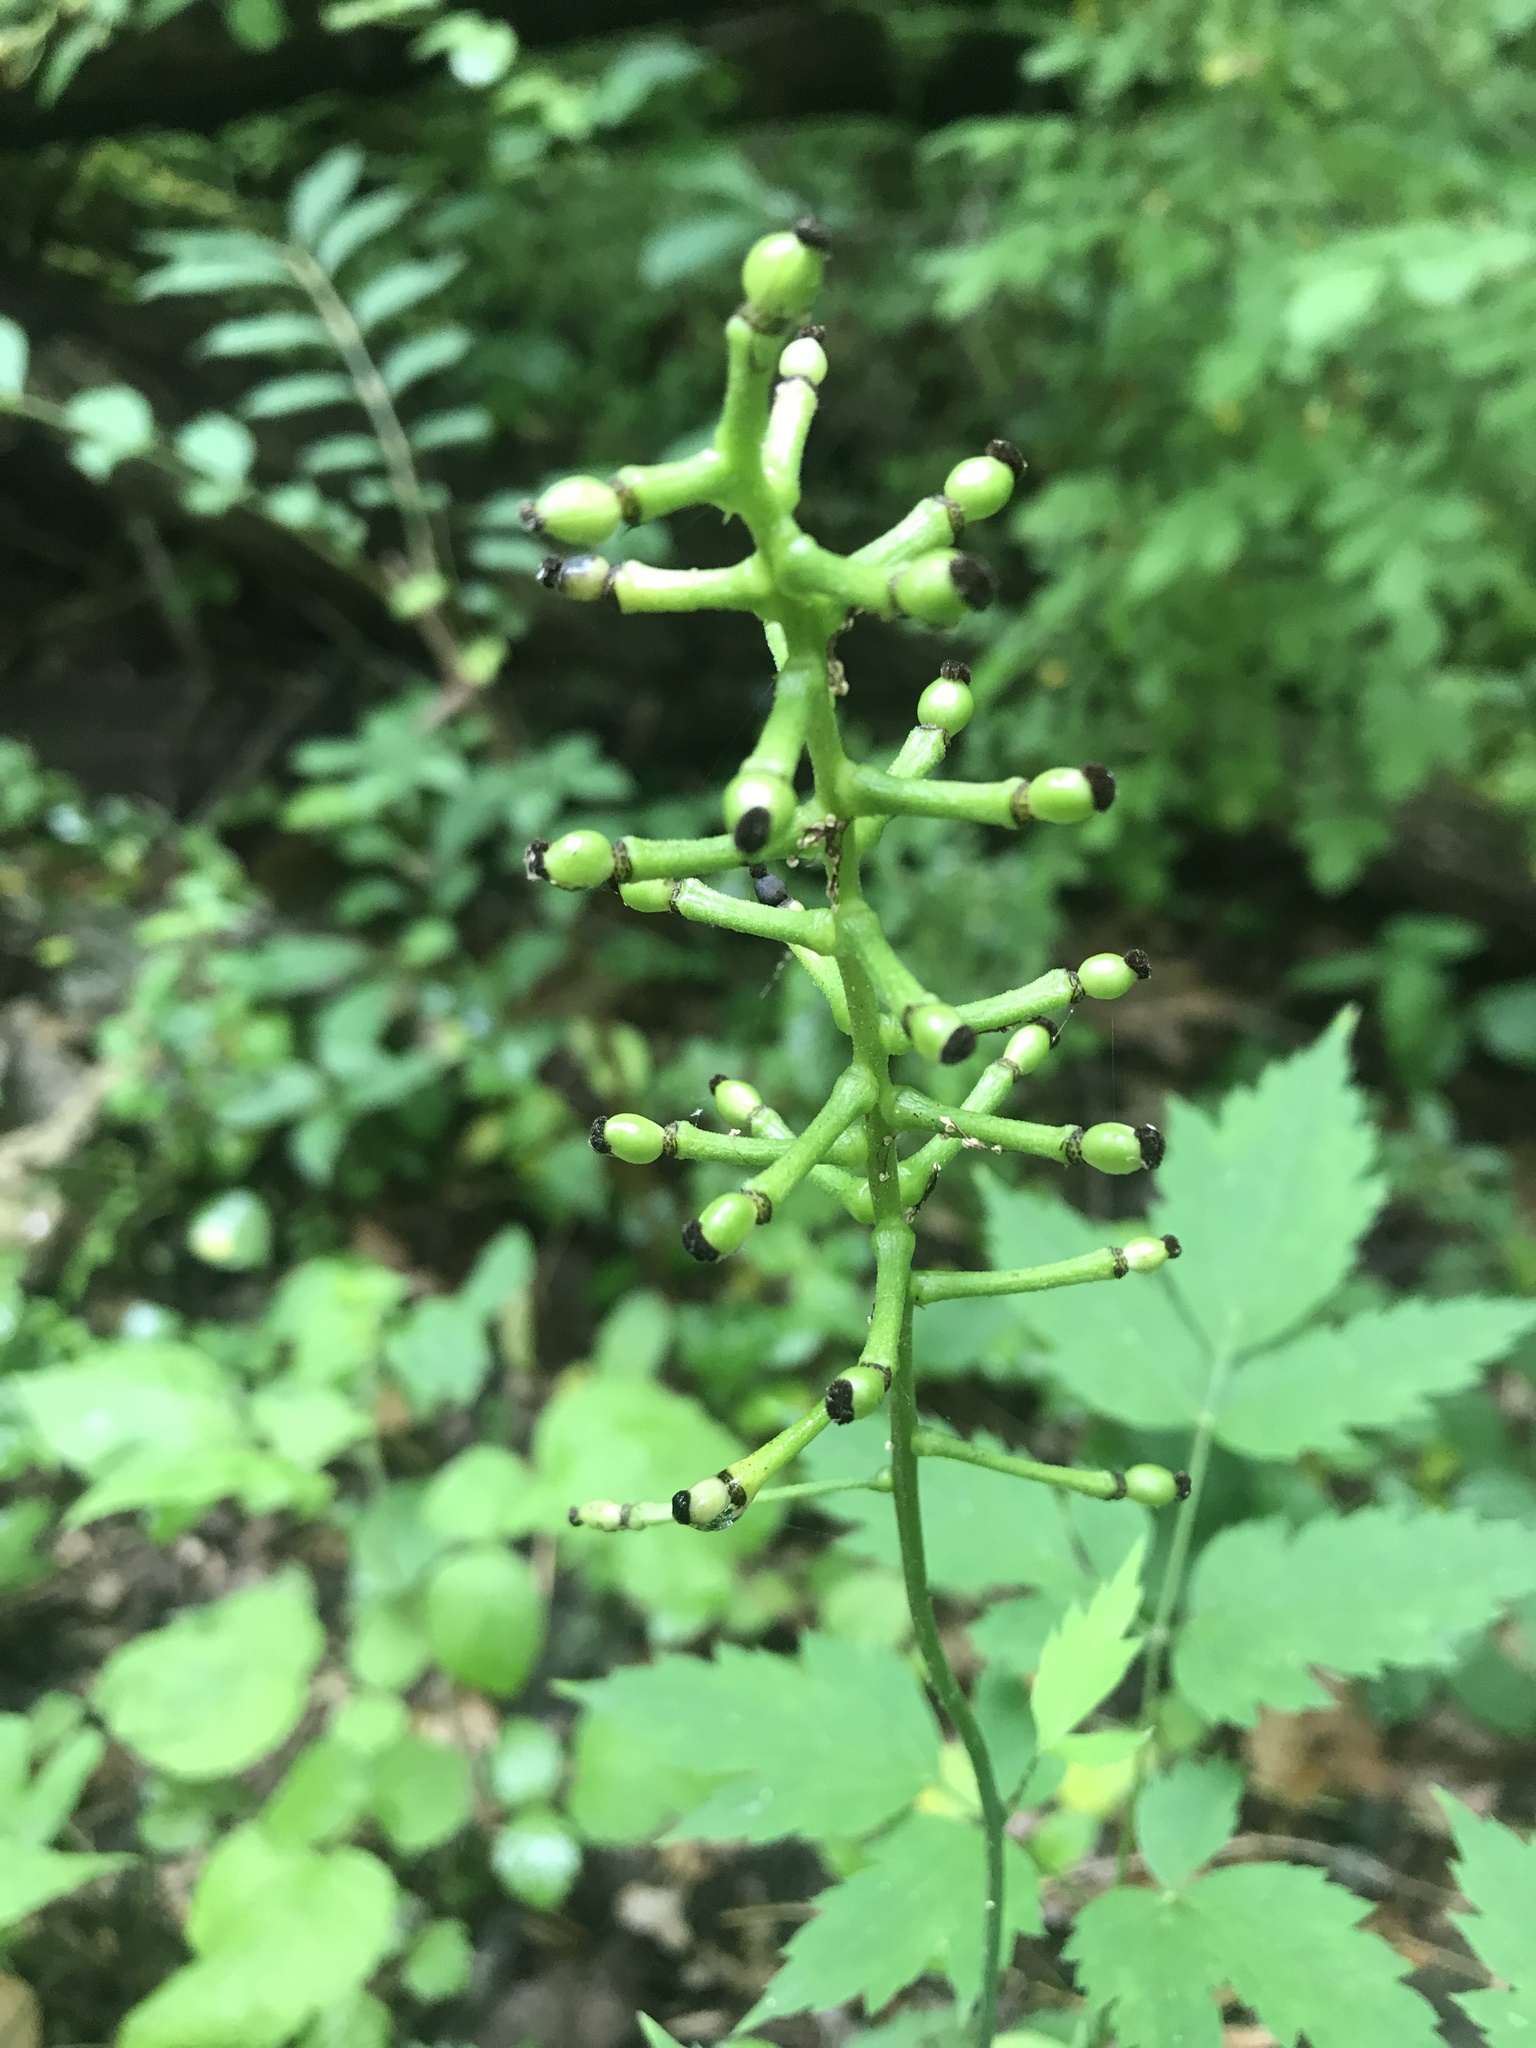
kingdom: Plantae
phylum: Tracheophyta
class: Magnoliopsida
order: Ranunculales
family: Ranunculaceae
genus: Actaea
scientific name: Actaea pachypoda
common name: Doll's-eyes
